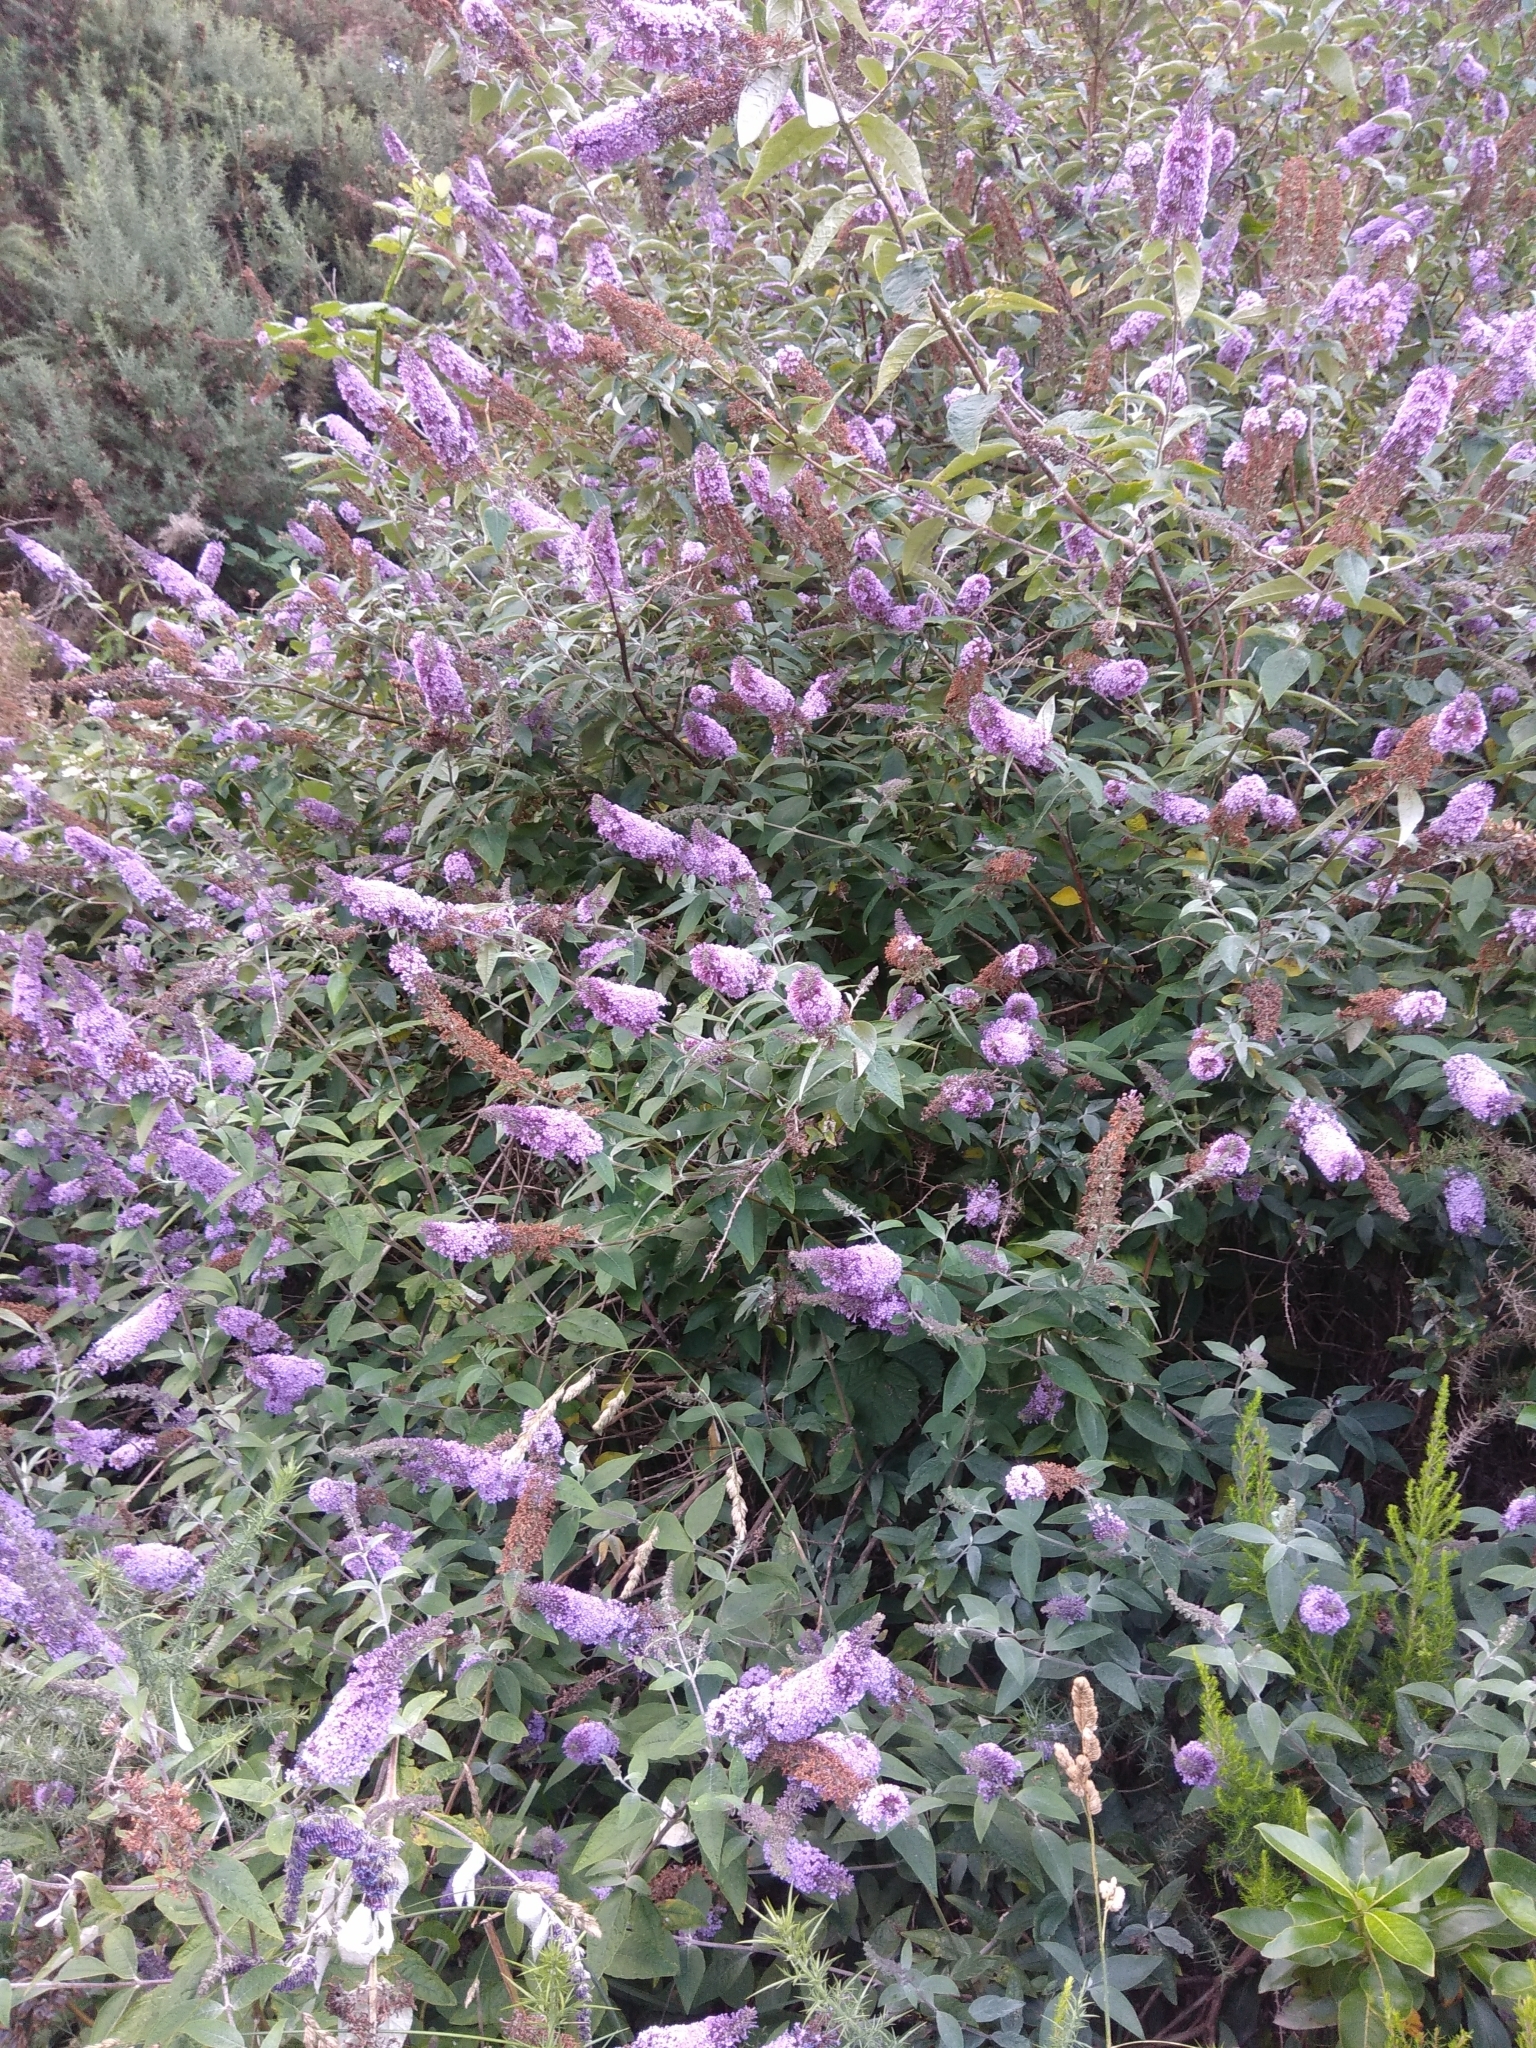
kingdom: Plantae
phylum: Tracheophyta
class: Magnoliopsida
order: Lamiales
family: Scrophulariaceae
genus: Buddleja
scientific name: Buddleja davidii
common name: Butterfly-bush
